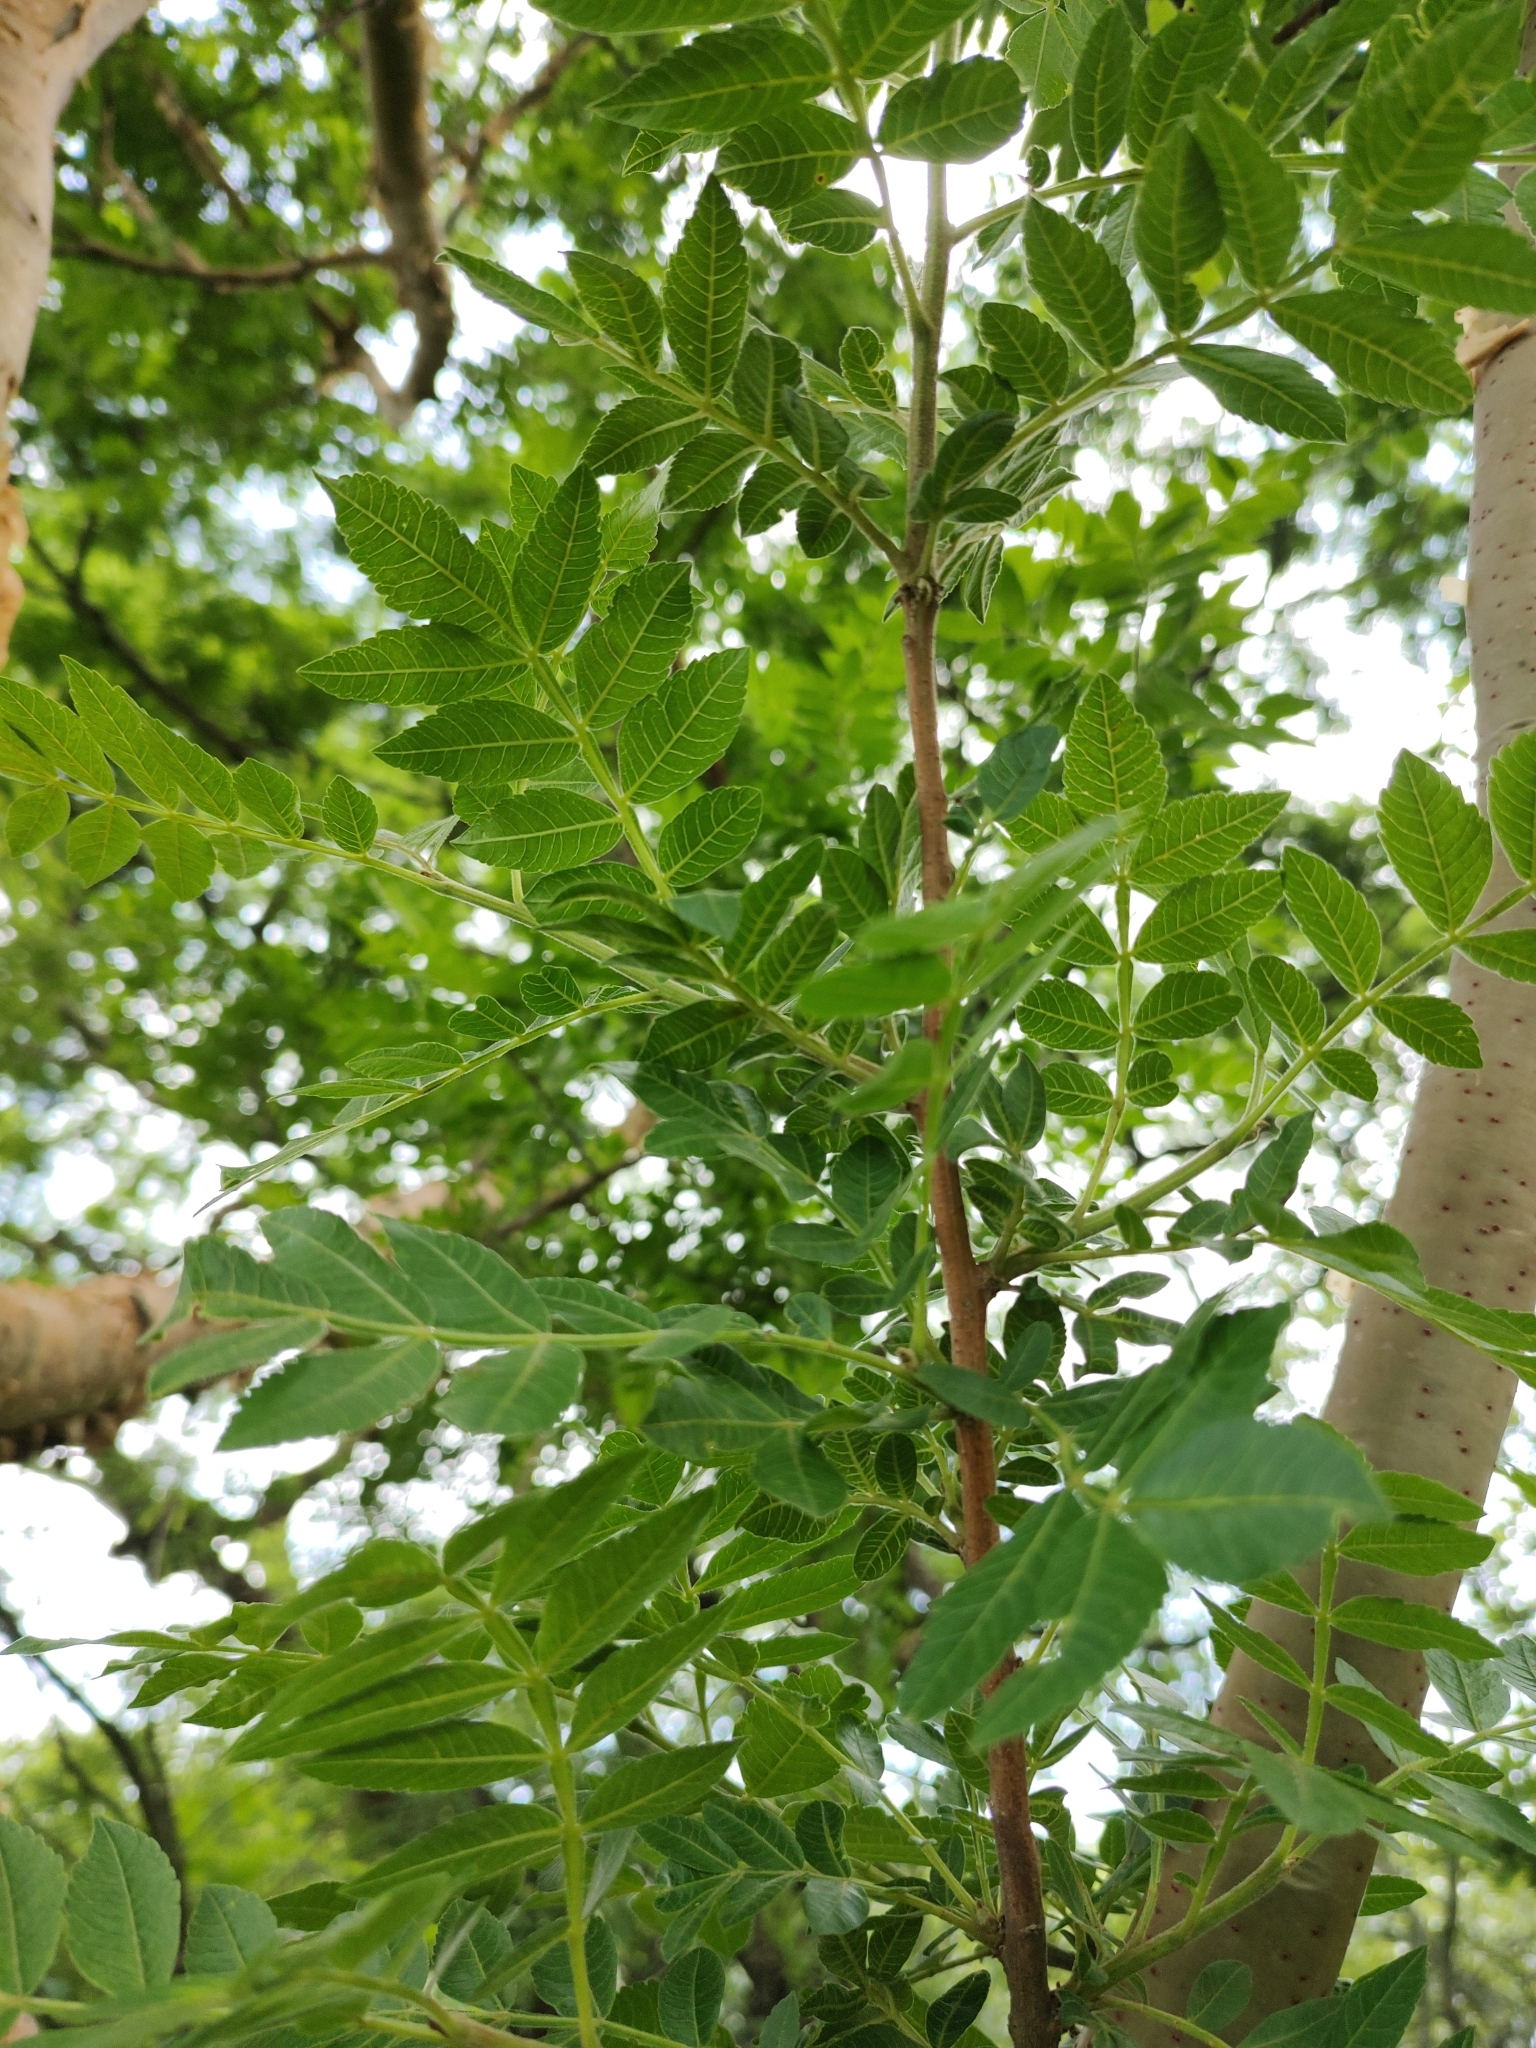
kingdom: Plantae
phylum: Tracheophyta
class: Magnoliopsida
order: Sapindales
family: Burseraceae
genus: Bursera
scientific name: Bursera ariensis
